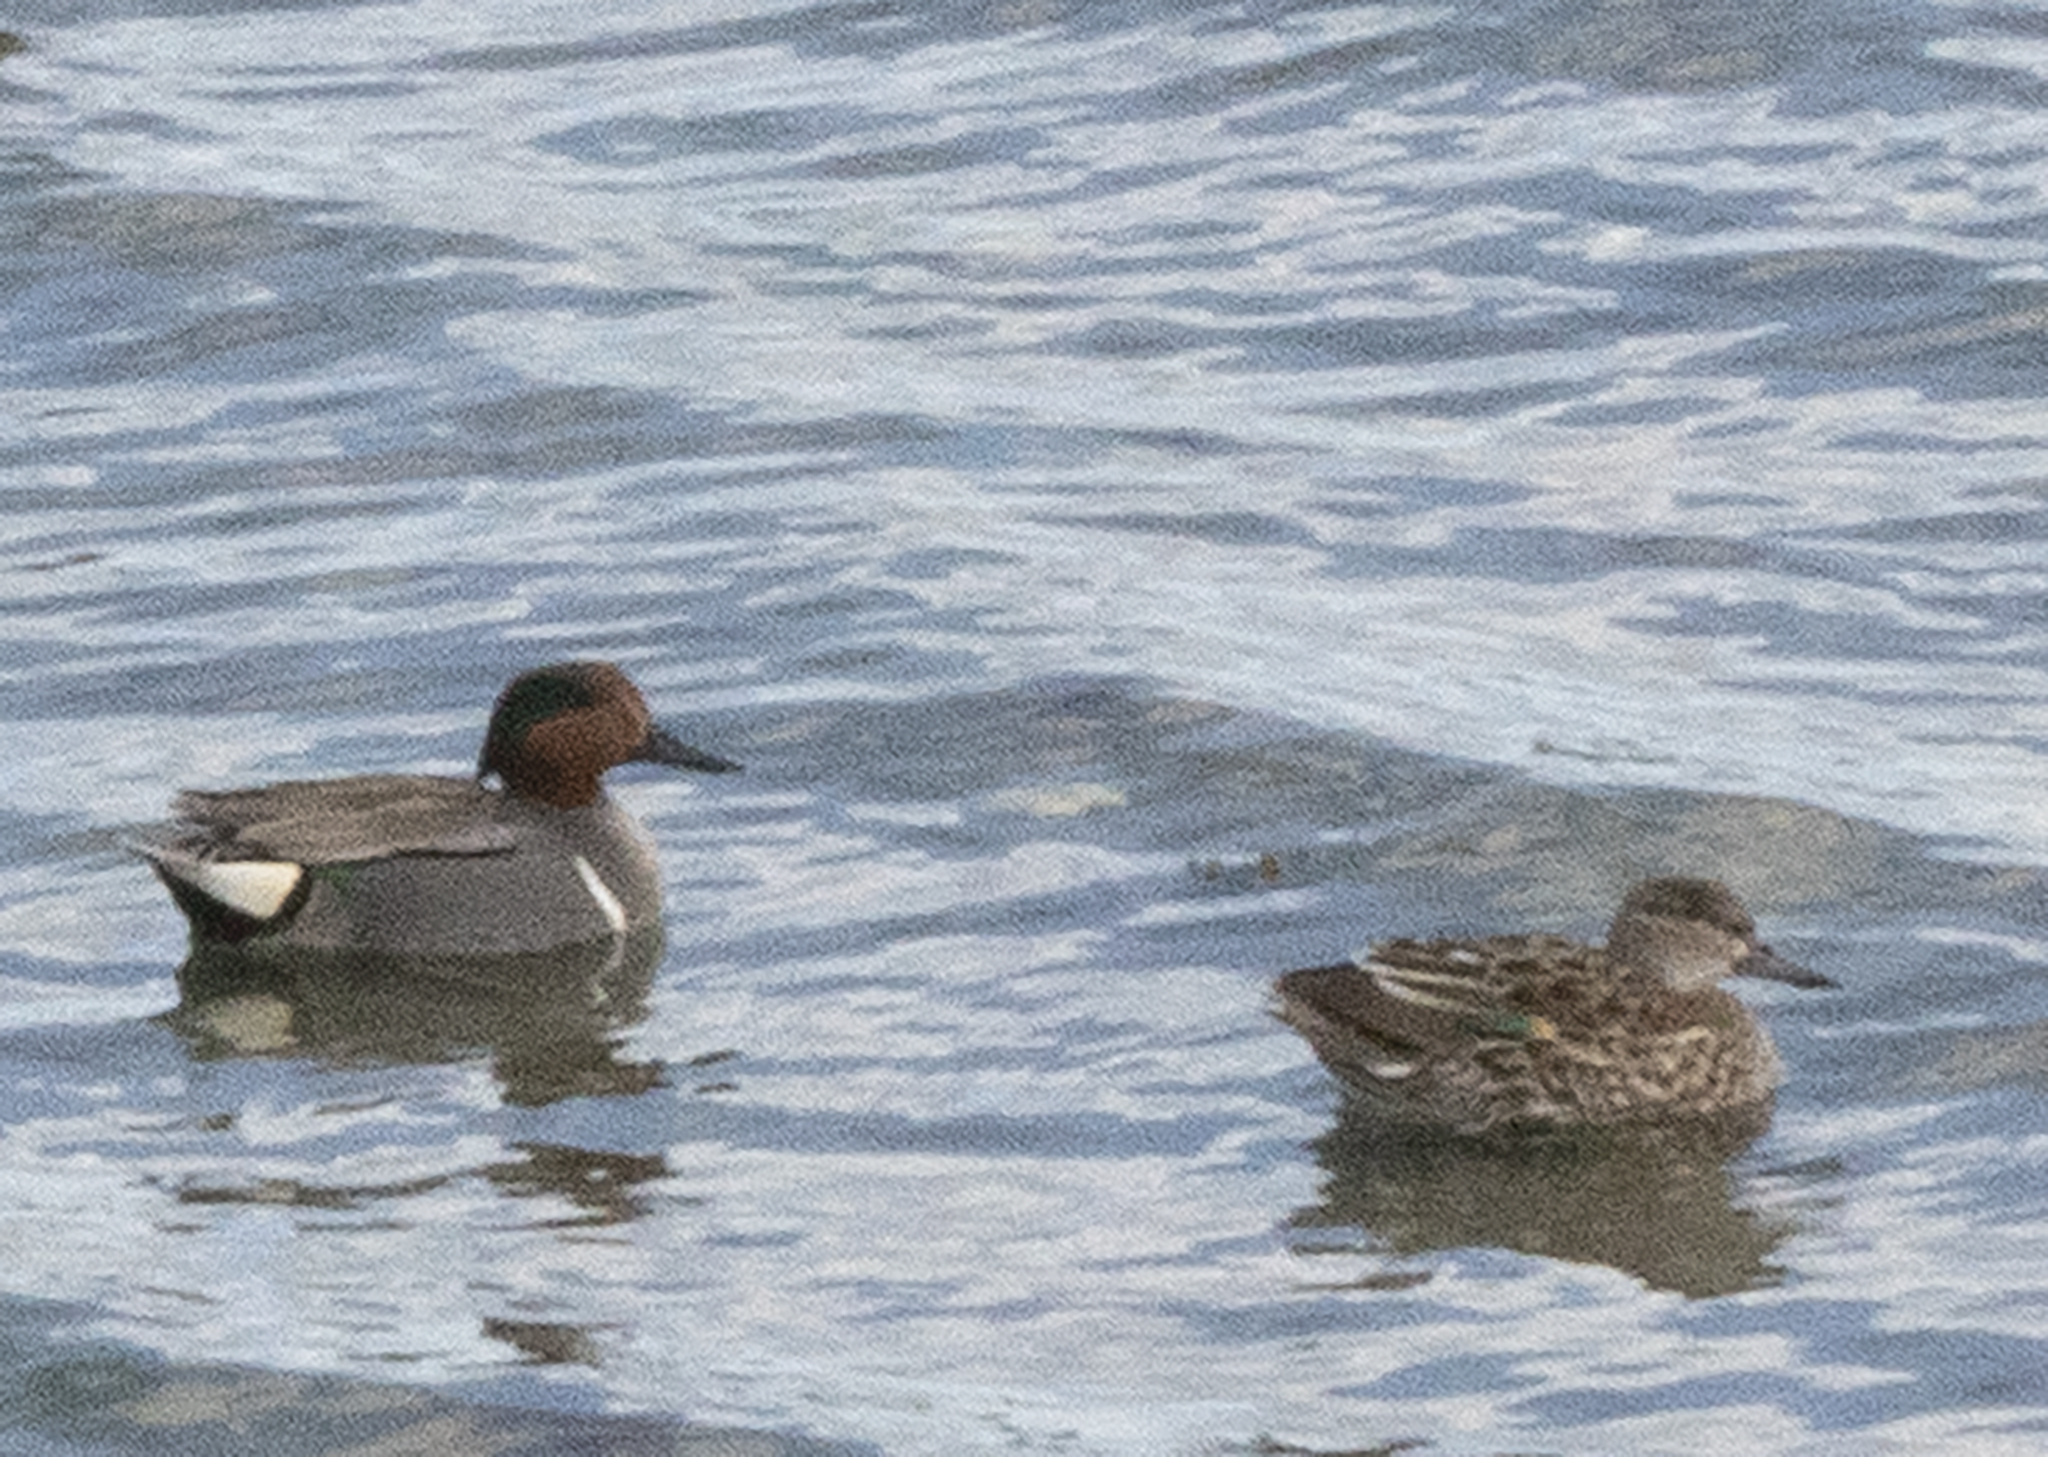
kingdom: Animalia
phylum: Chordata
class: Aves
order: Anseriformes
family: Anatidae
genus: Anas
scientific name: Anas crecca
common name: Eurasian teal
